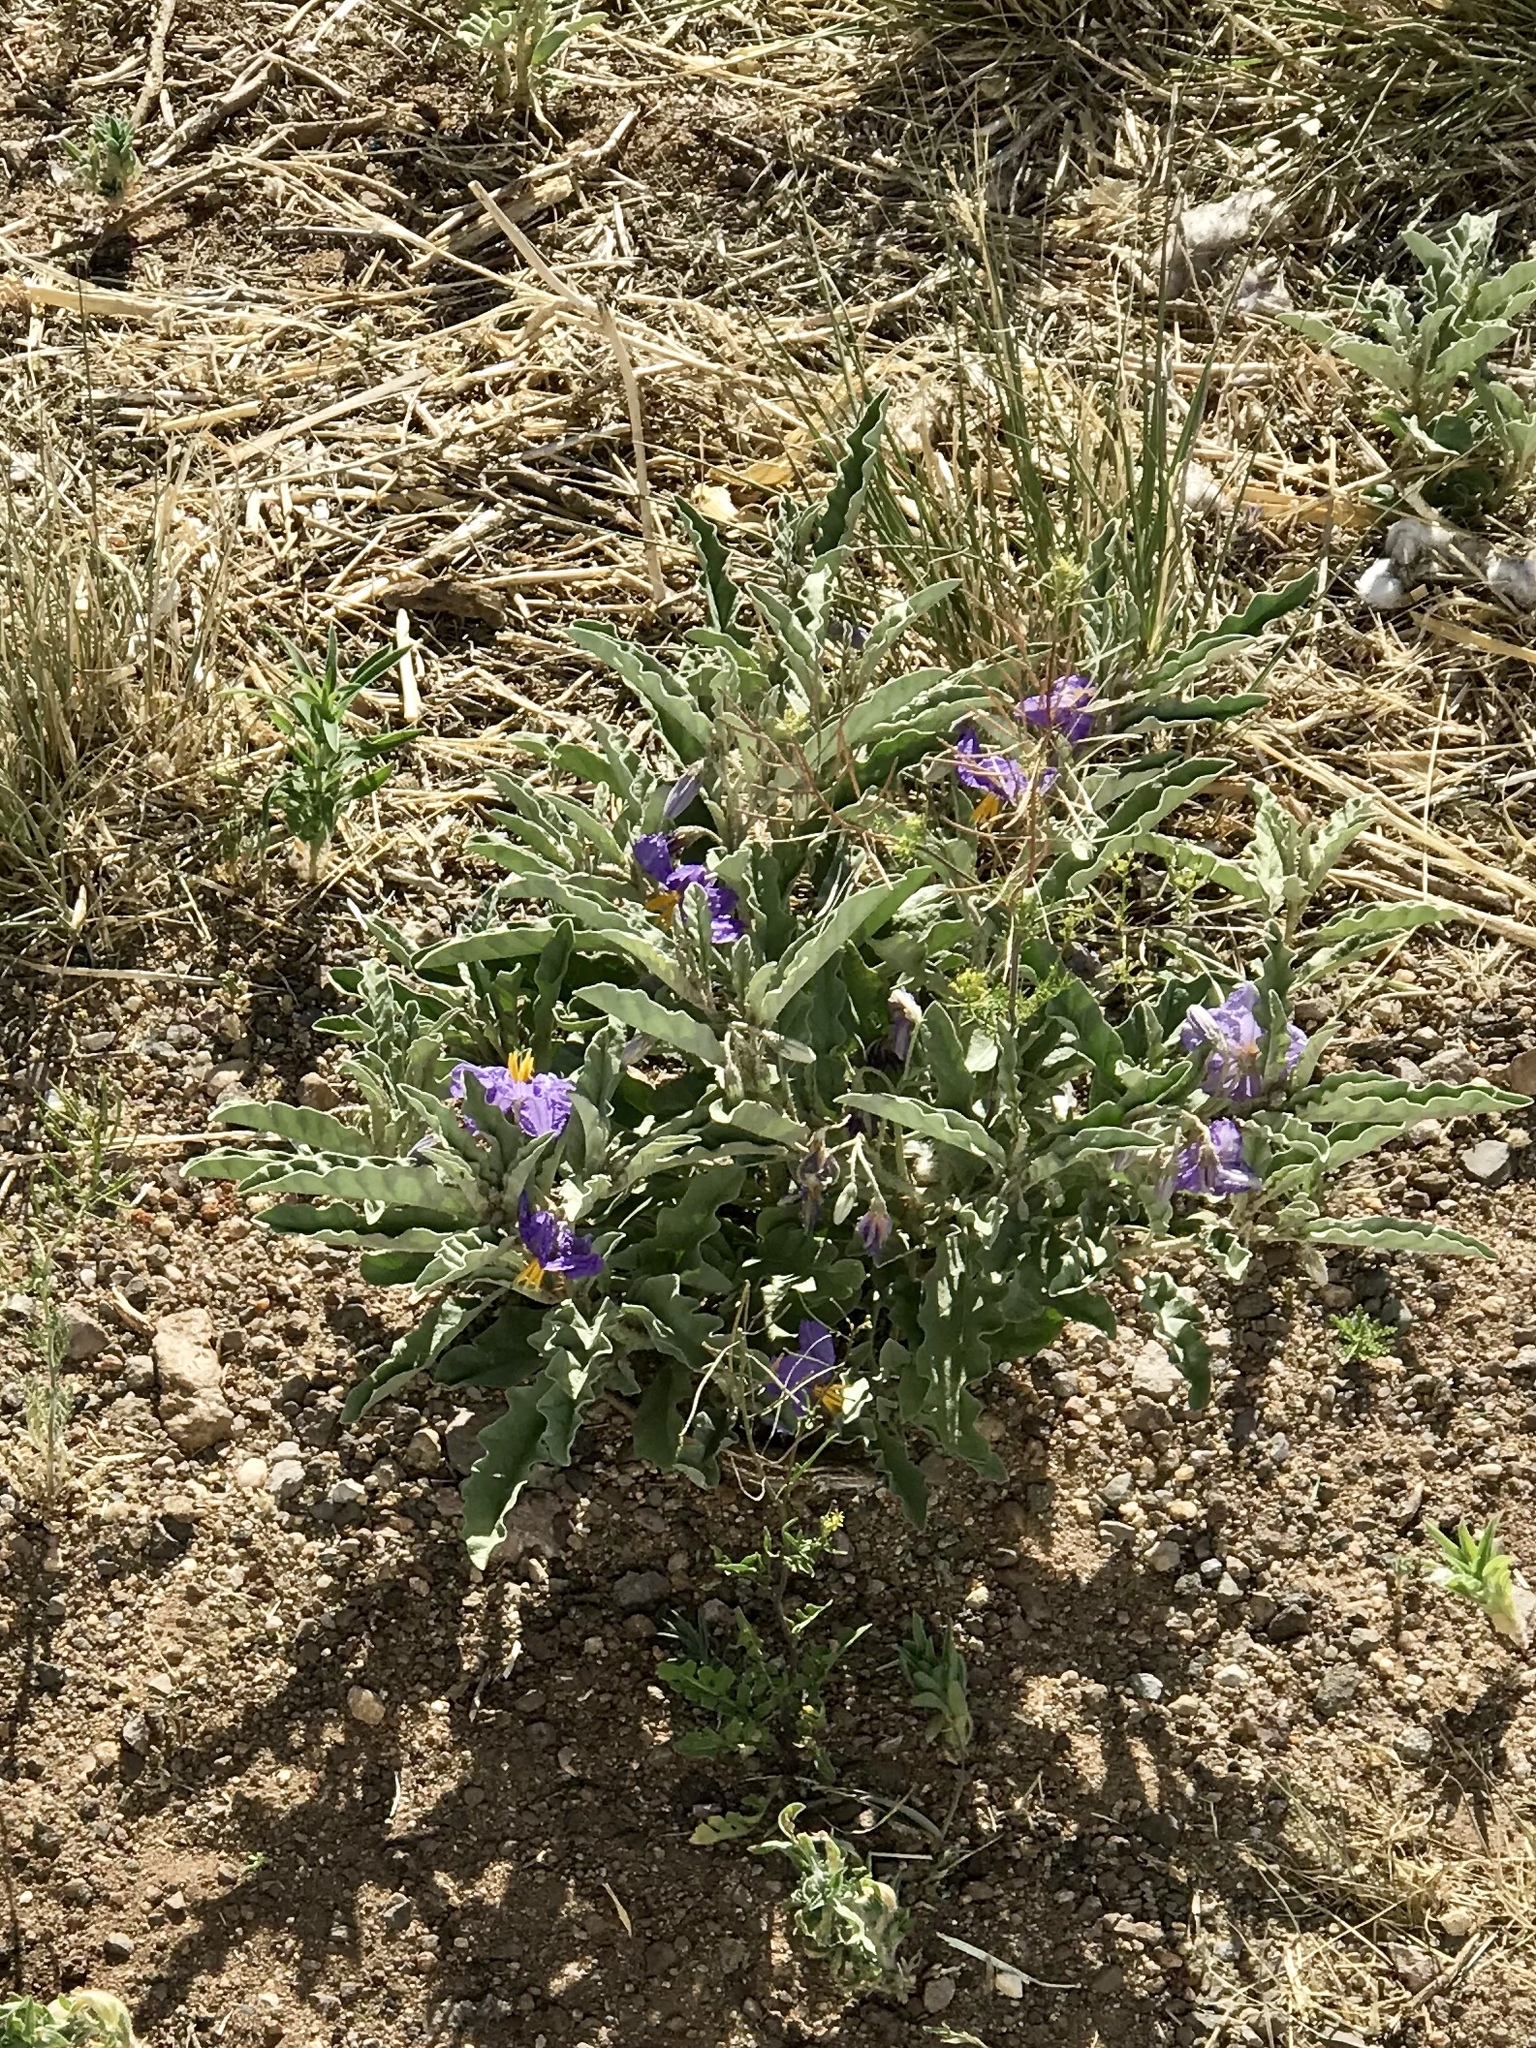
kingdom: Plantae
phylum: Tracheophyta
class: Magnoliopsida
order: Solanales
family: Solanaceae
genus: Solanum
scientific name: Solanum elaeagnifolium
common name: Silverleaf nightshade
